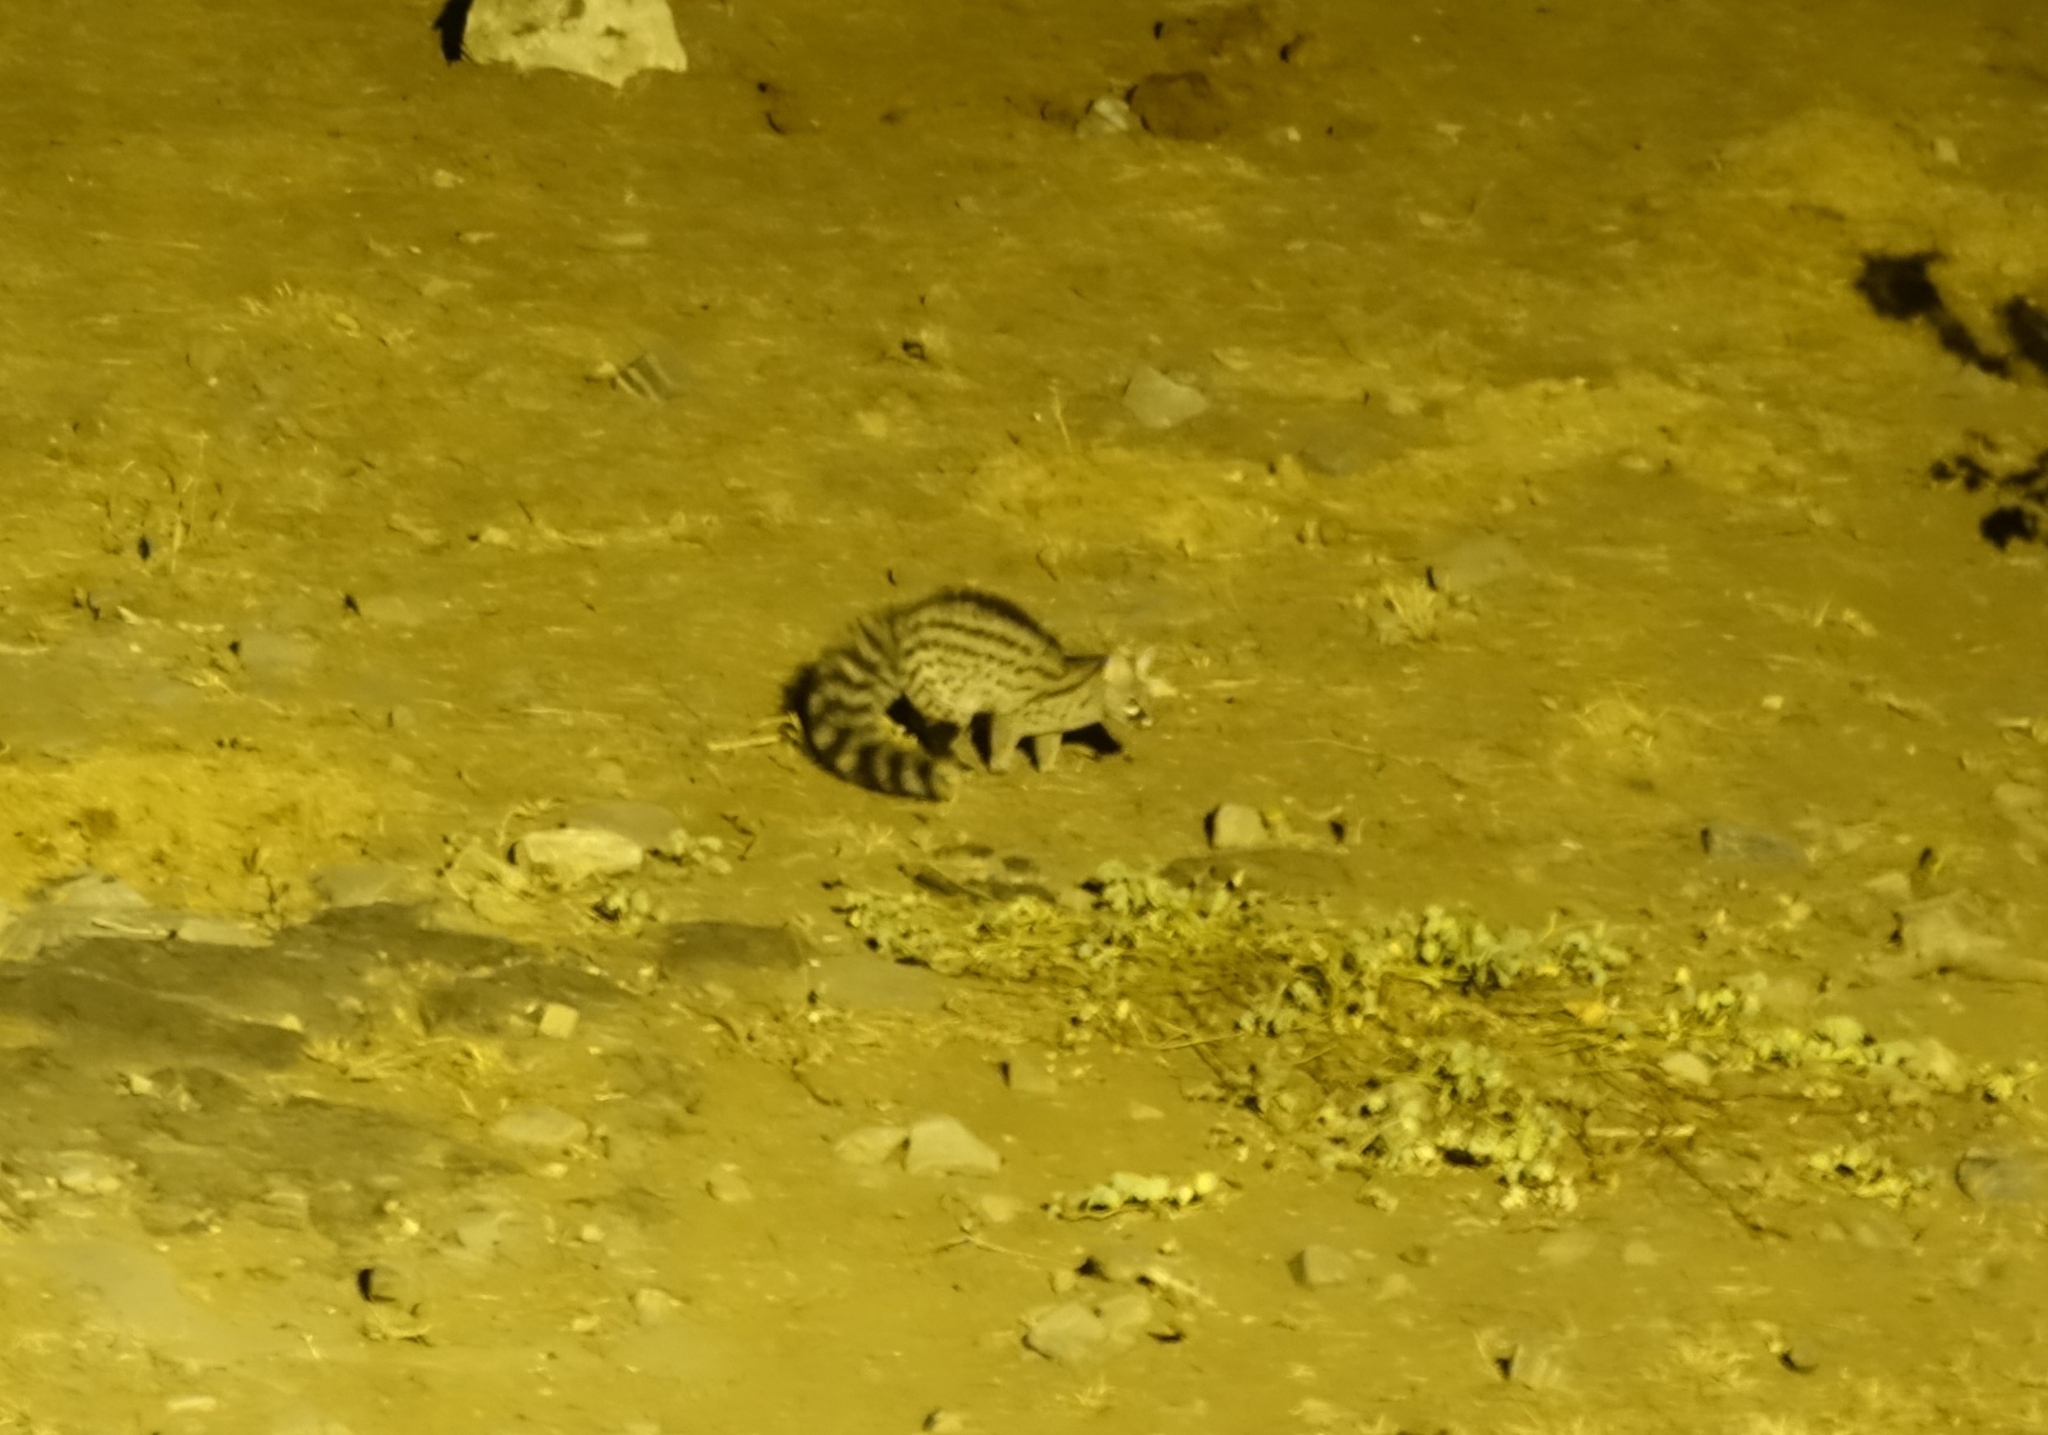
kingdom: Animalia
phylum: Chordata
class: Mammalia
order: Carnivora
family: Viverridae
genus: Genetta
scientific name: Genetta genetta
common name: Common genet
